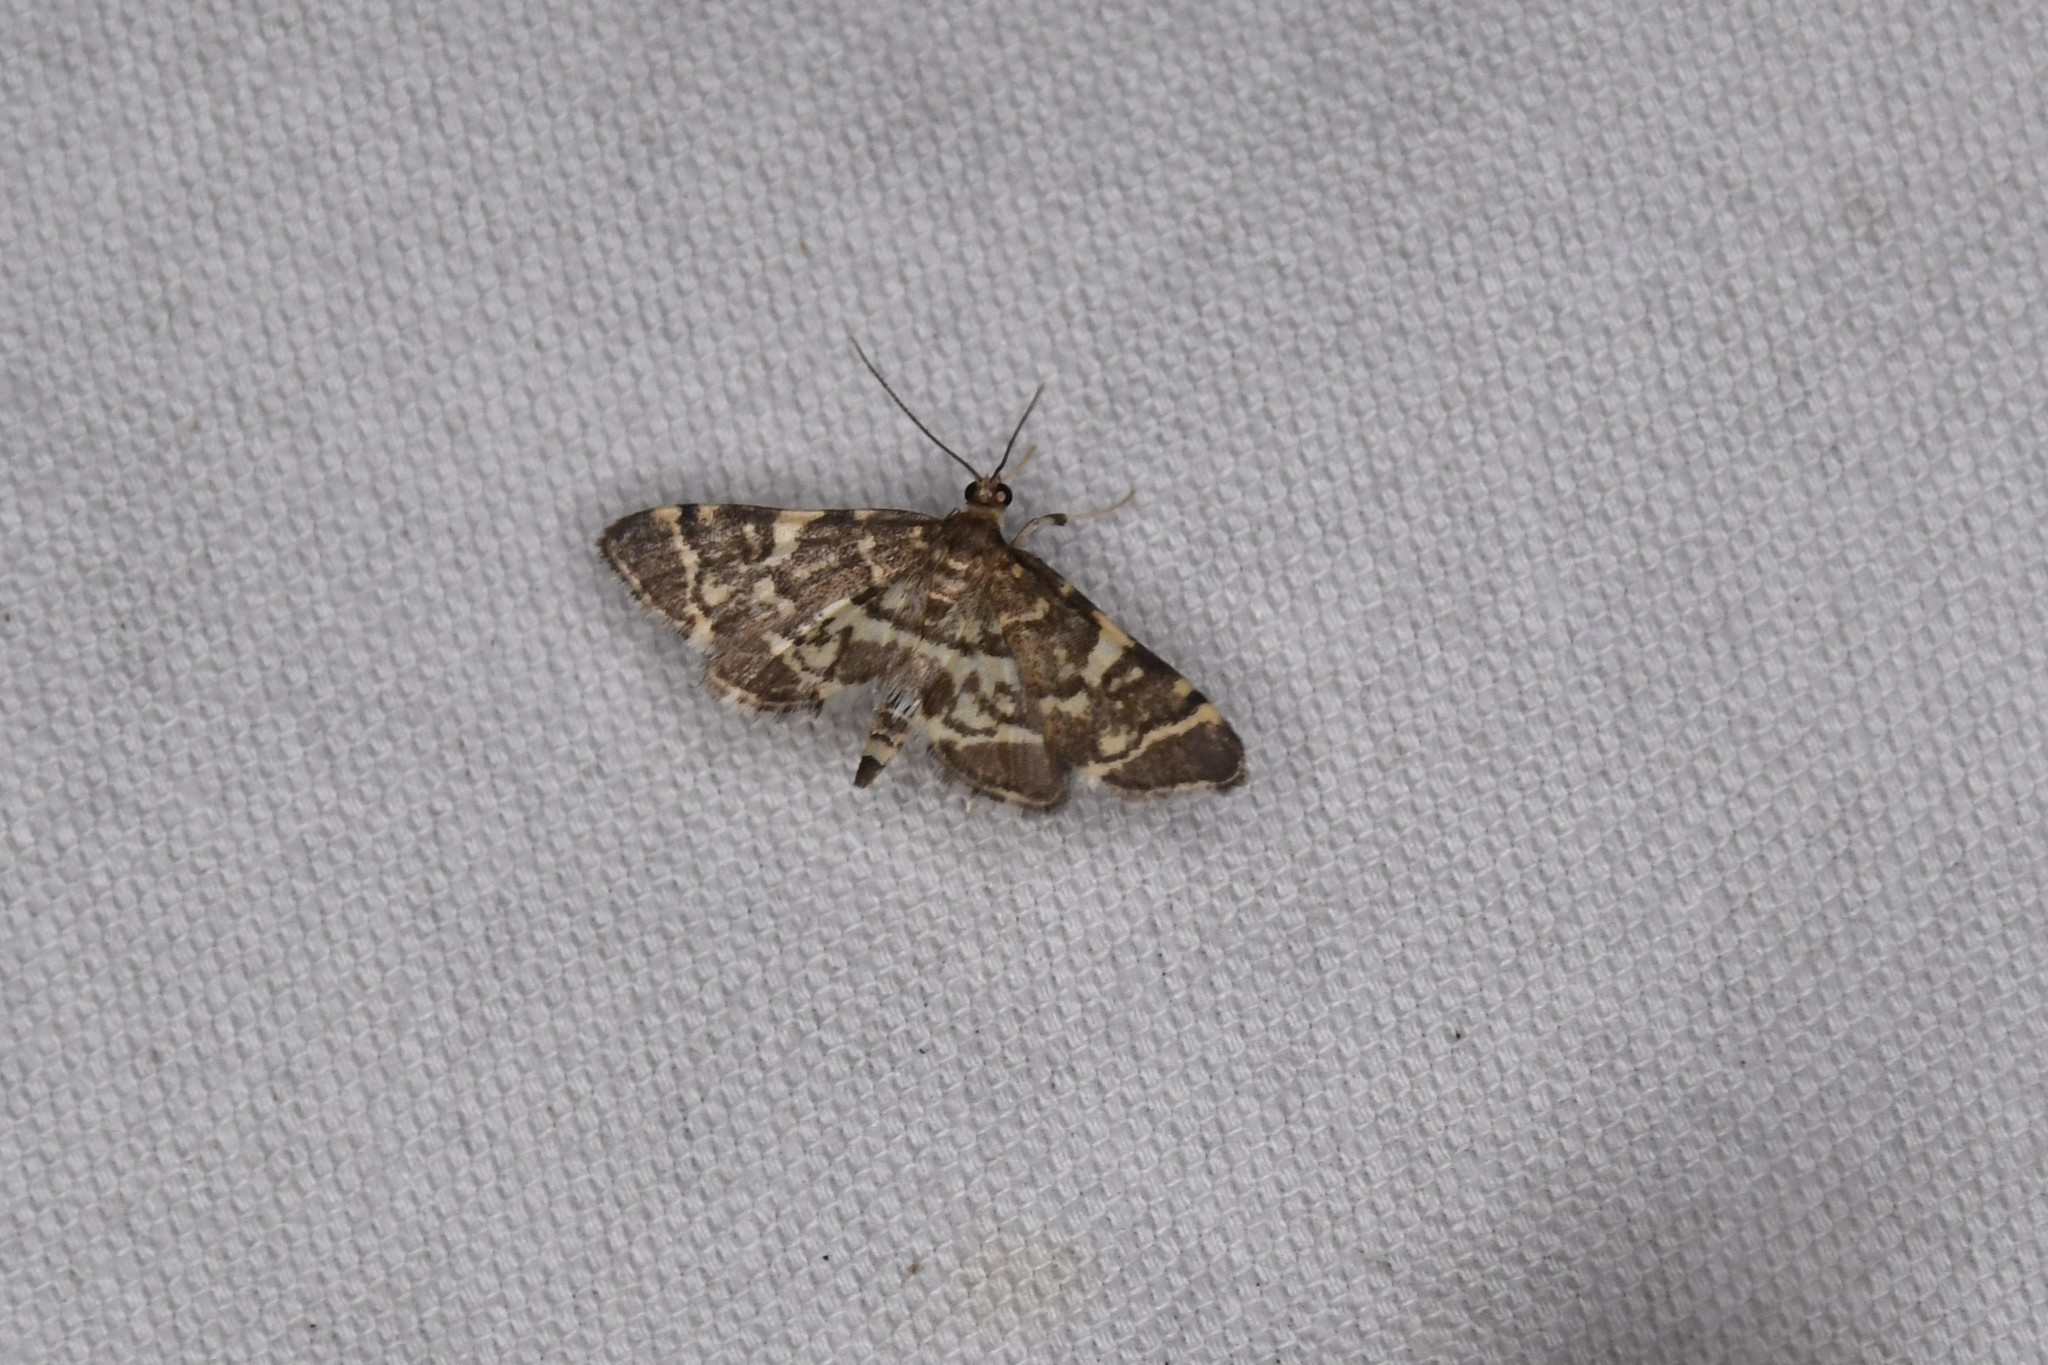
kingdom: Animalia
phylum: Arthropoda
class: Insecta
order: Lepidoptera
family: Crambidae
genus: Anageshna
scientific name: Anageshna primordialis
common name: Yellow-spotted webworm moth
